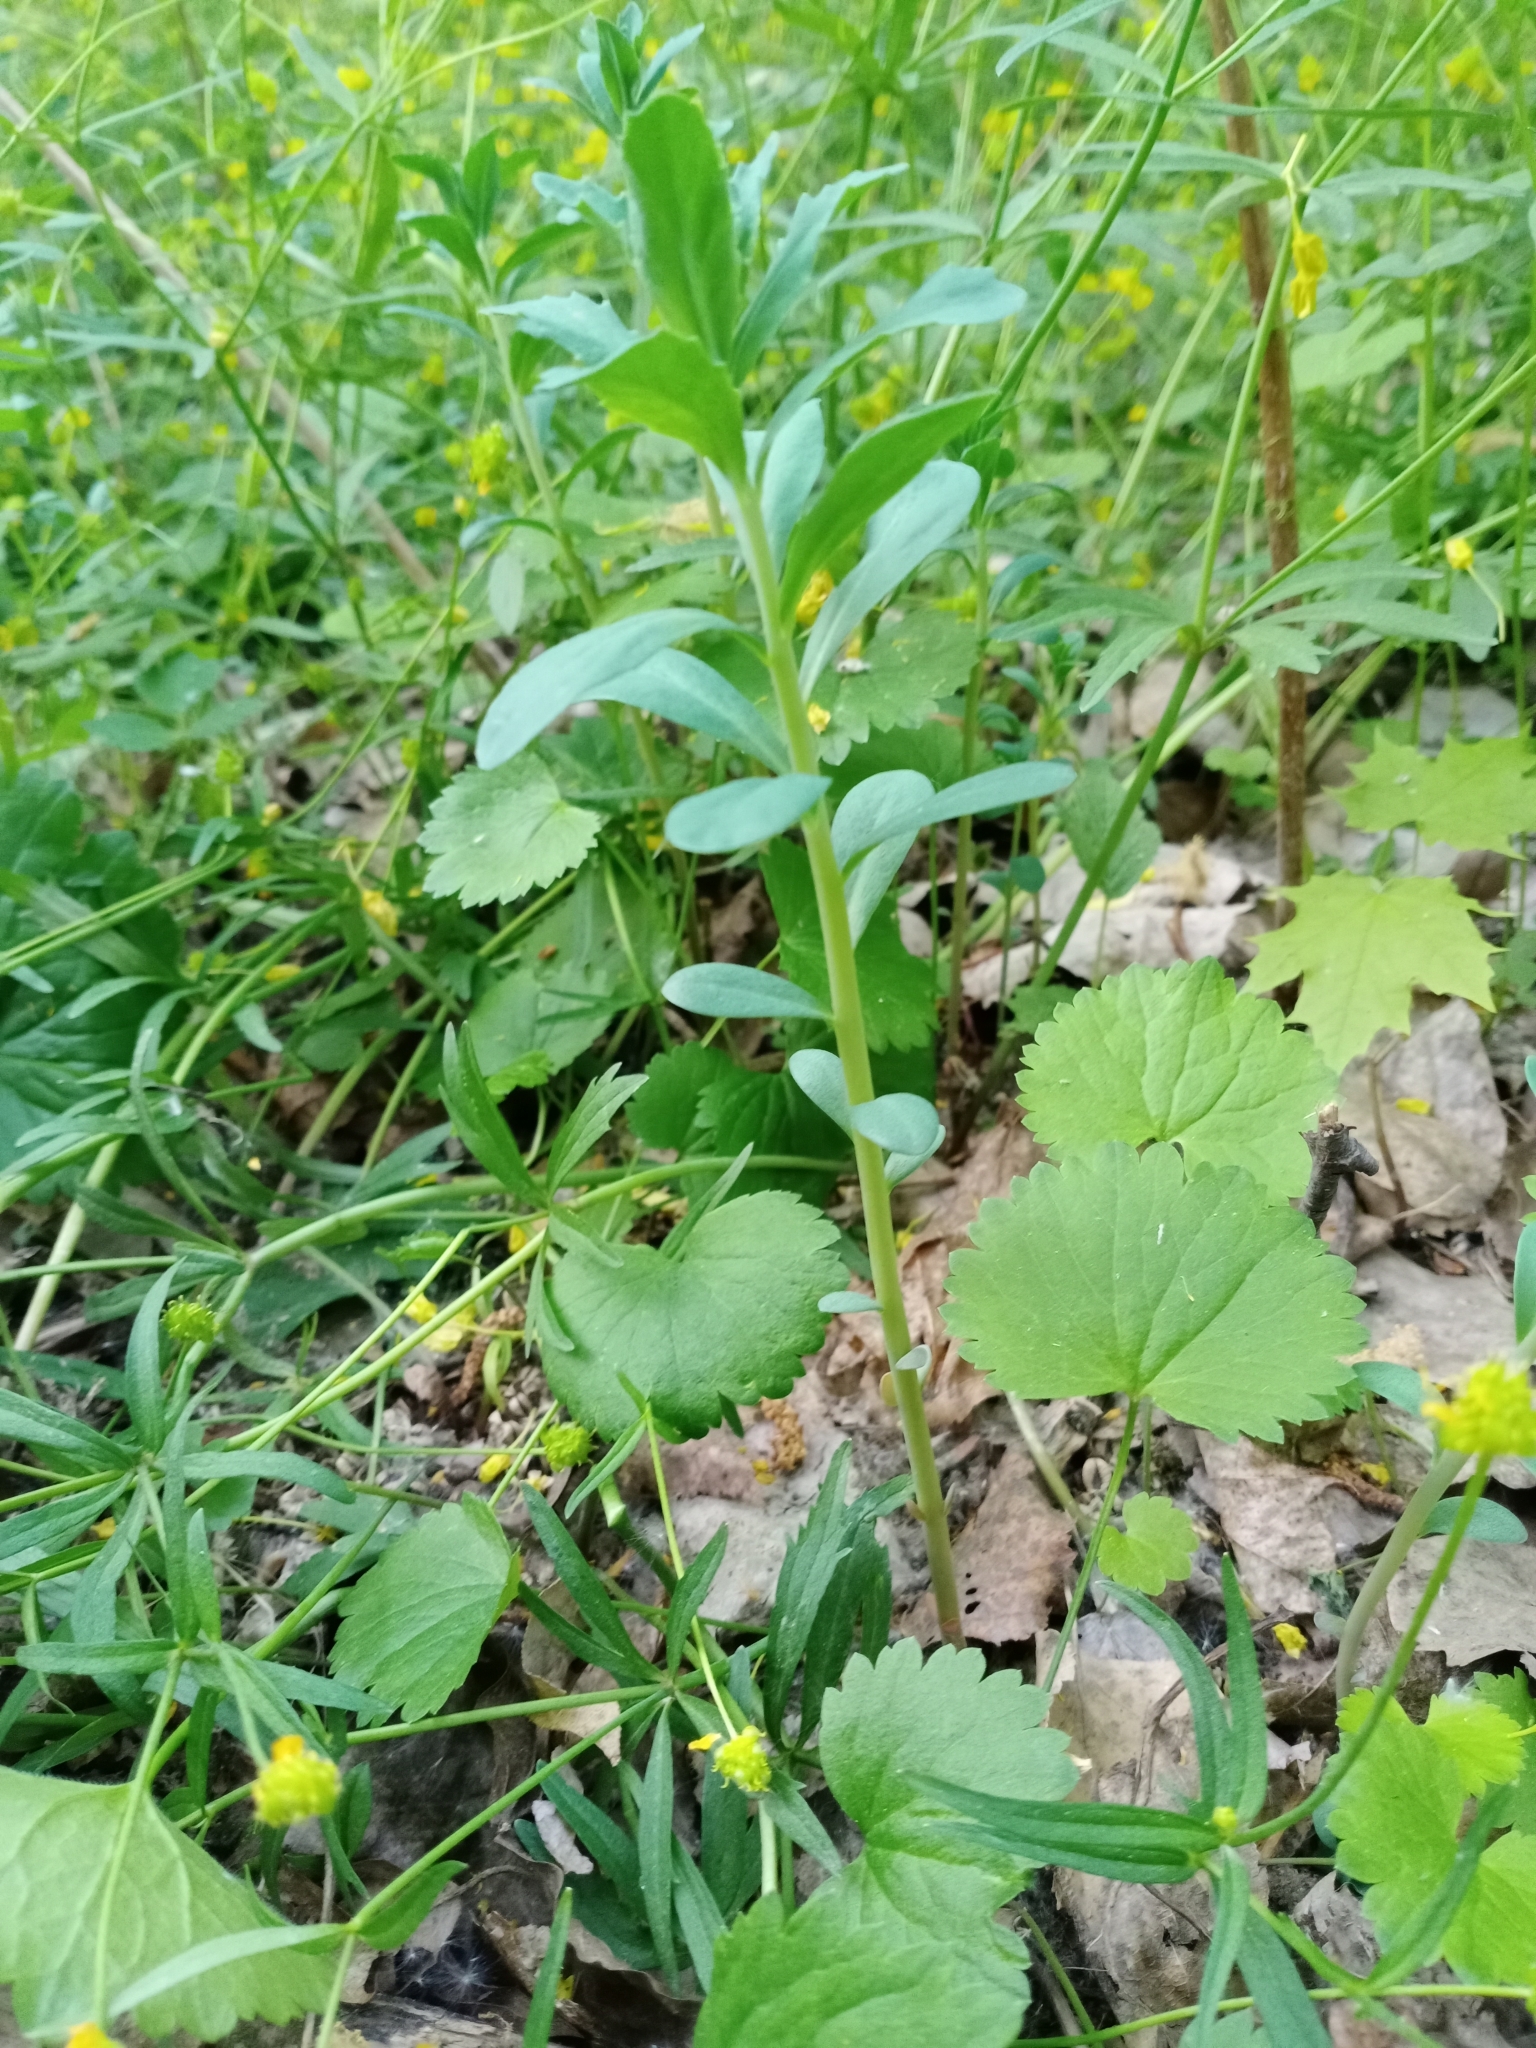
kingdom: Plantae
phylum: Tracheophyta
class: Magnoliopsida
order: Saxifragales
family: Crassulaceae
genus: Hylotelephium
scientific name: Hylotelephium telephium
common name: Live-forever
